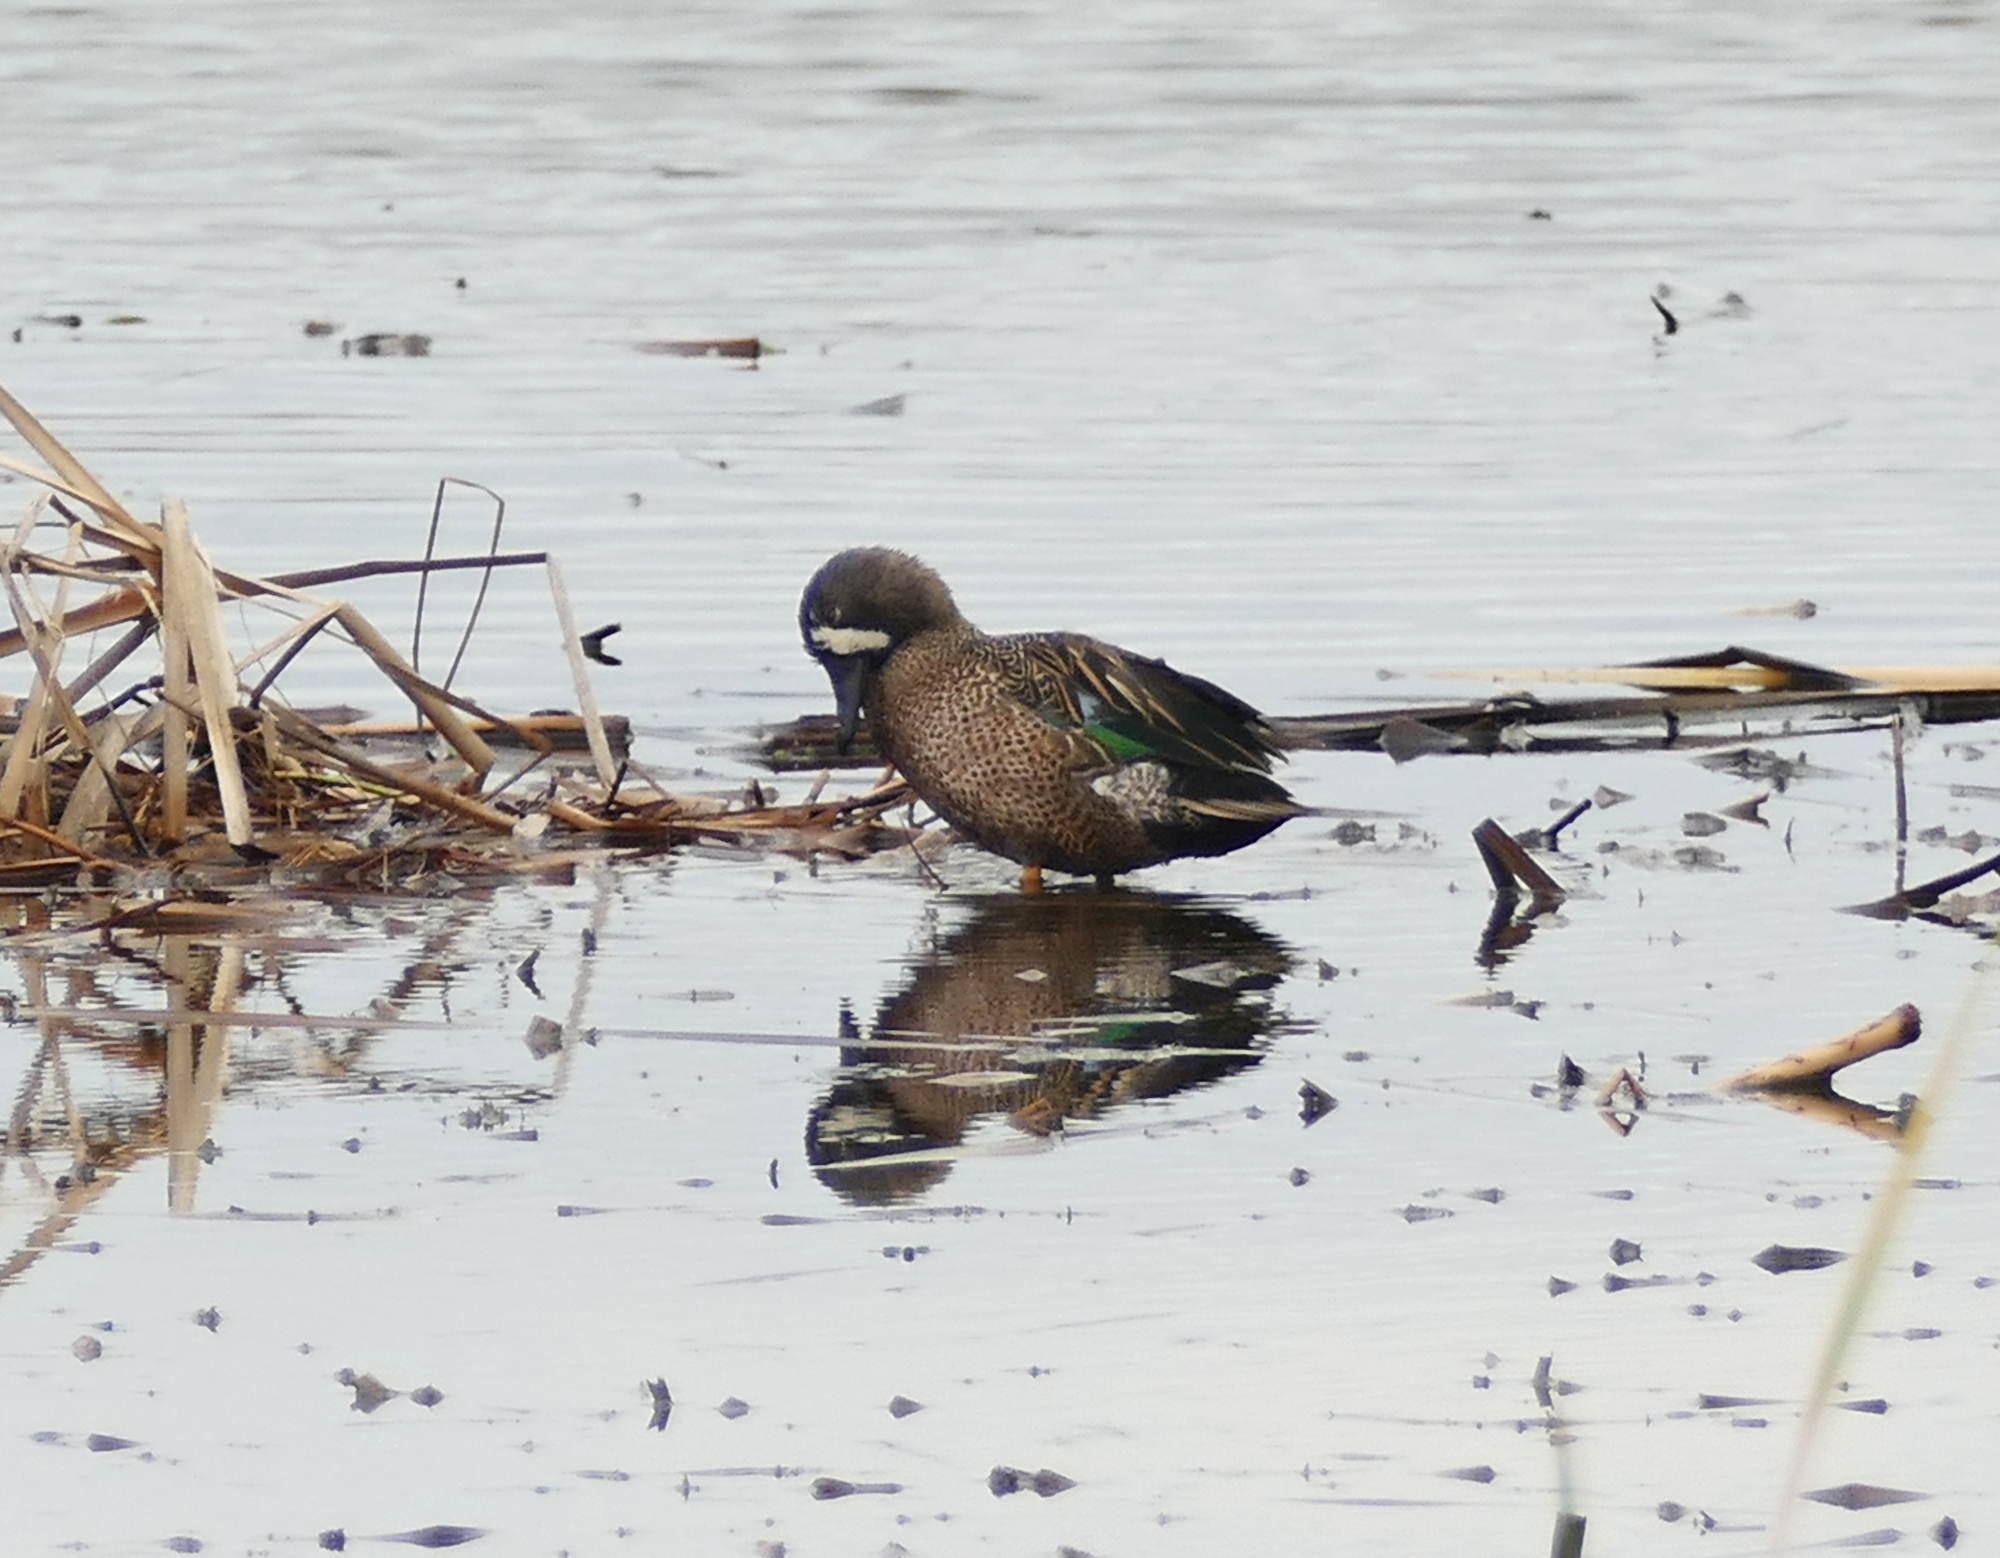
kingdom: Animalia
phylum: Chordata
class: Aves
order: Anseriformes
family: Anatidae
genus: Spatula
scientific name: Spatula discors
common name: Blue-winged teal
